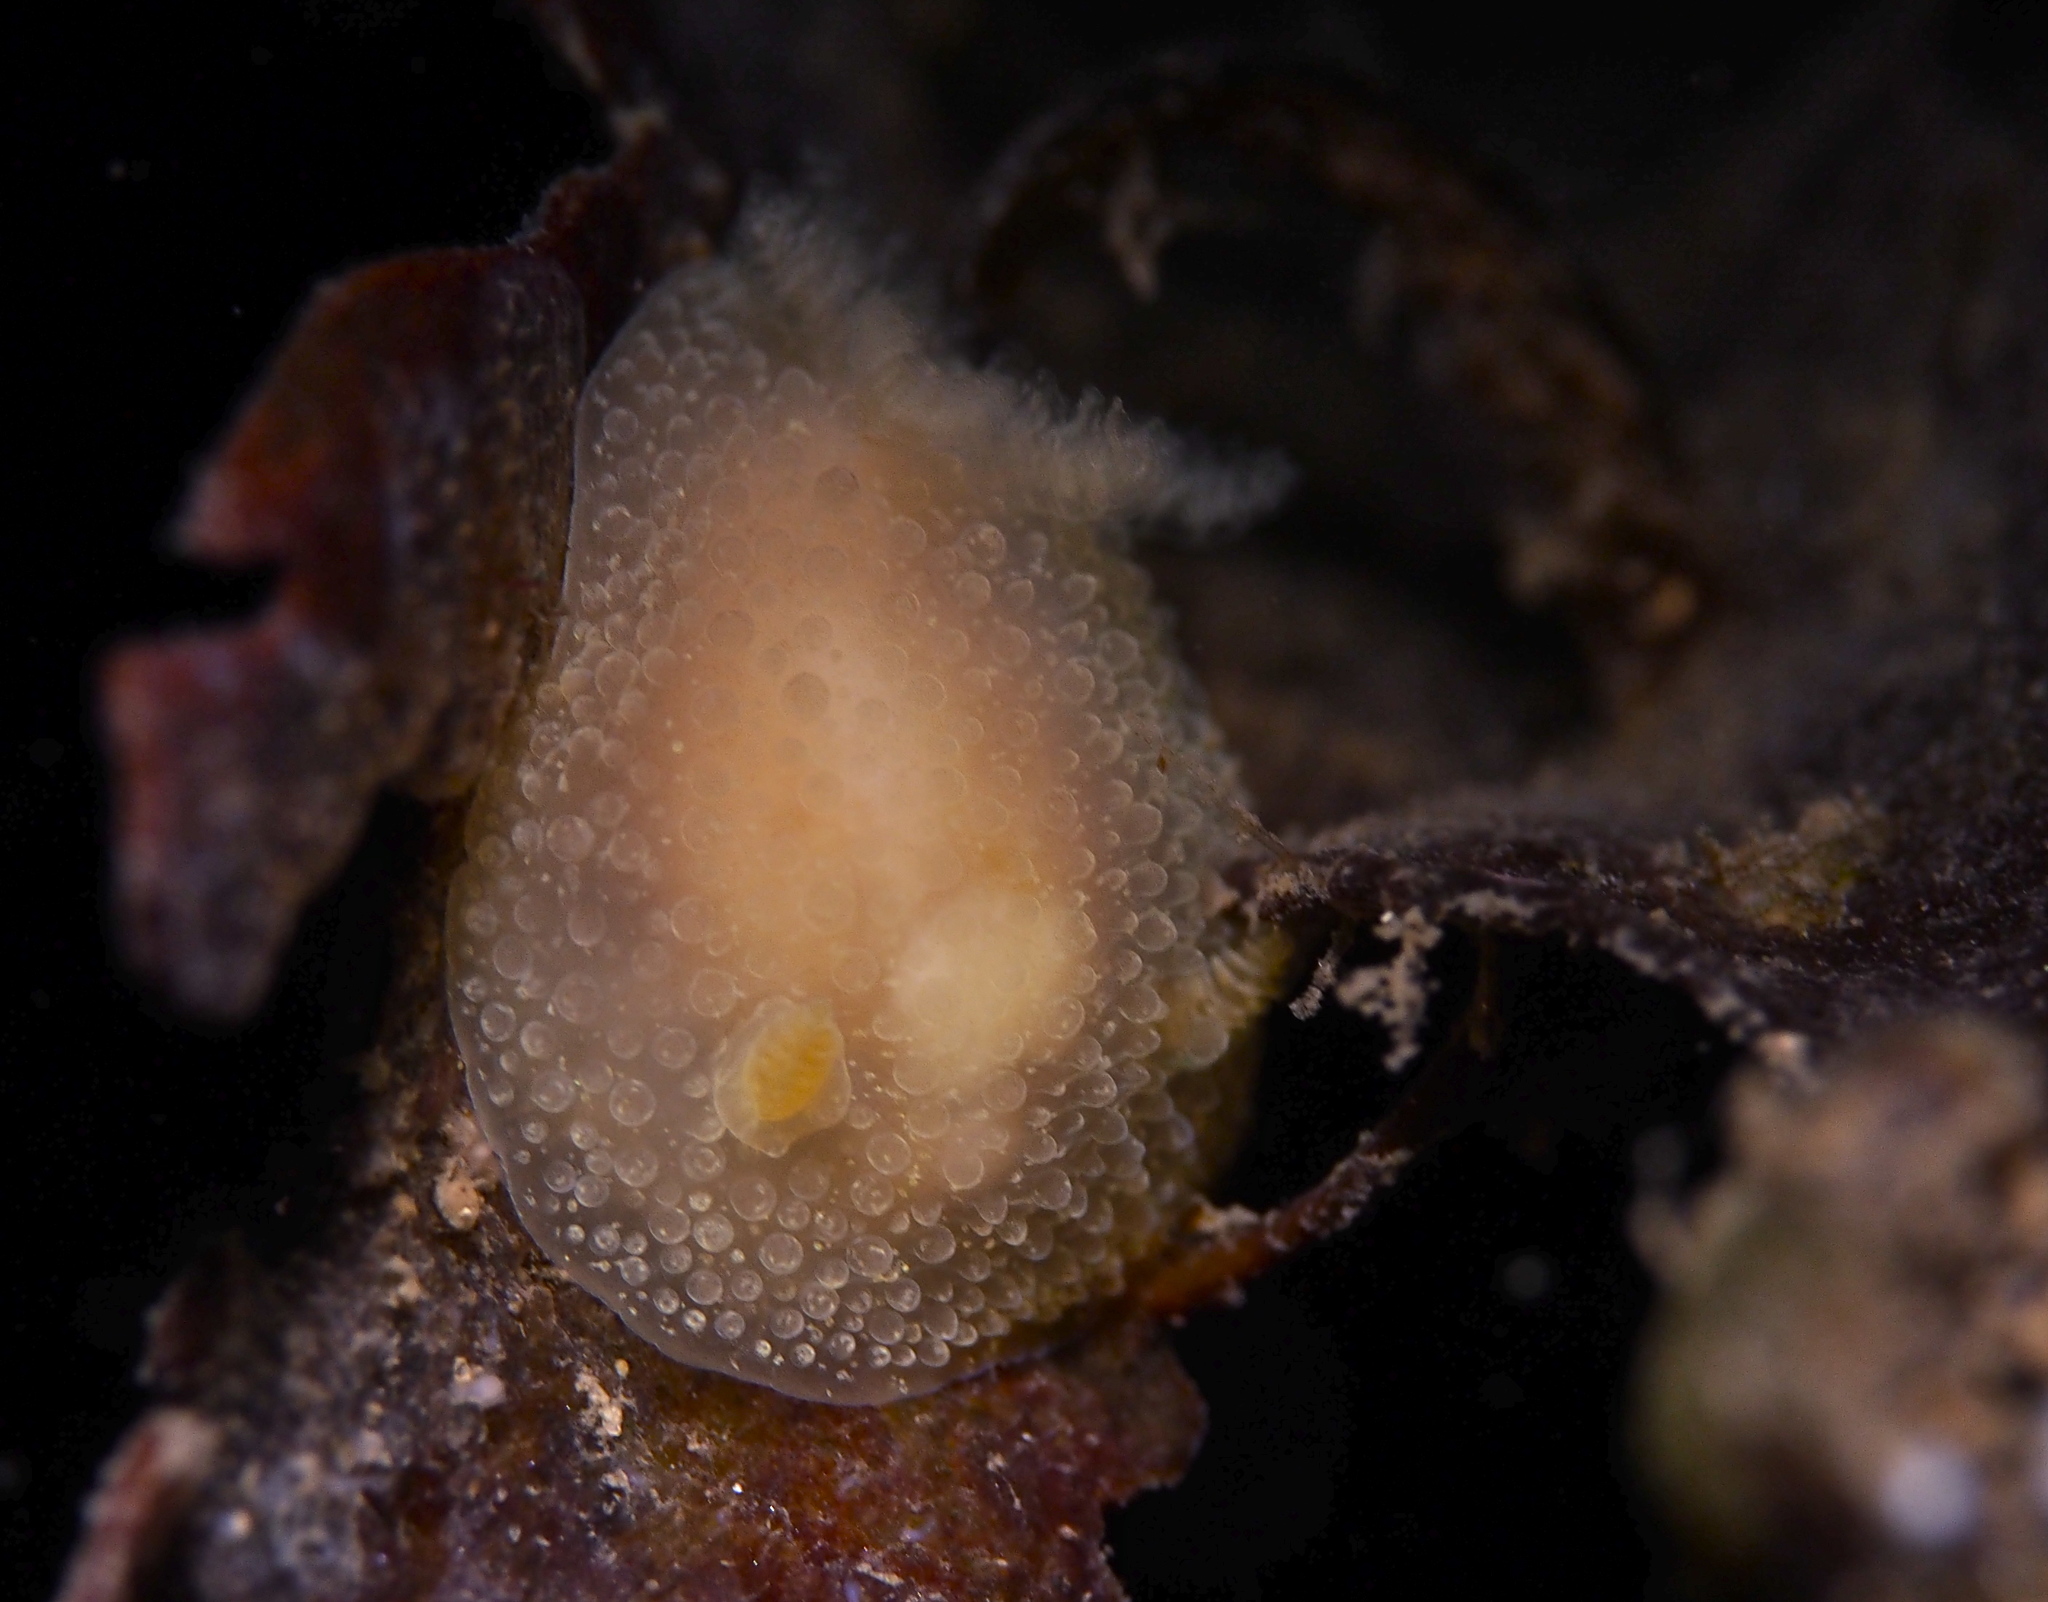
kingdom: Animalia
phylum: Mollusca
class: Gastropoda
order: Nudibranchia
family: Onchidorididae
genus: Acanthodoris
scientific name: Acanthodoris pilosa
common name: Hairy spiny doris
